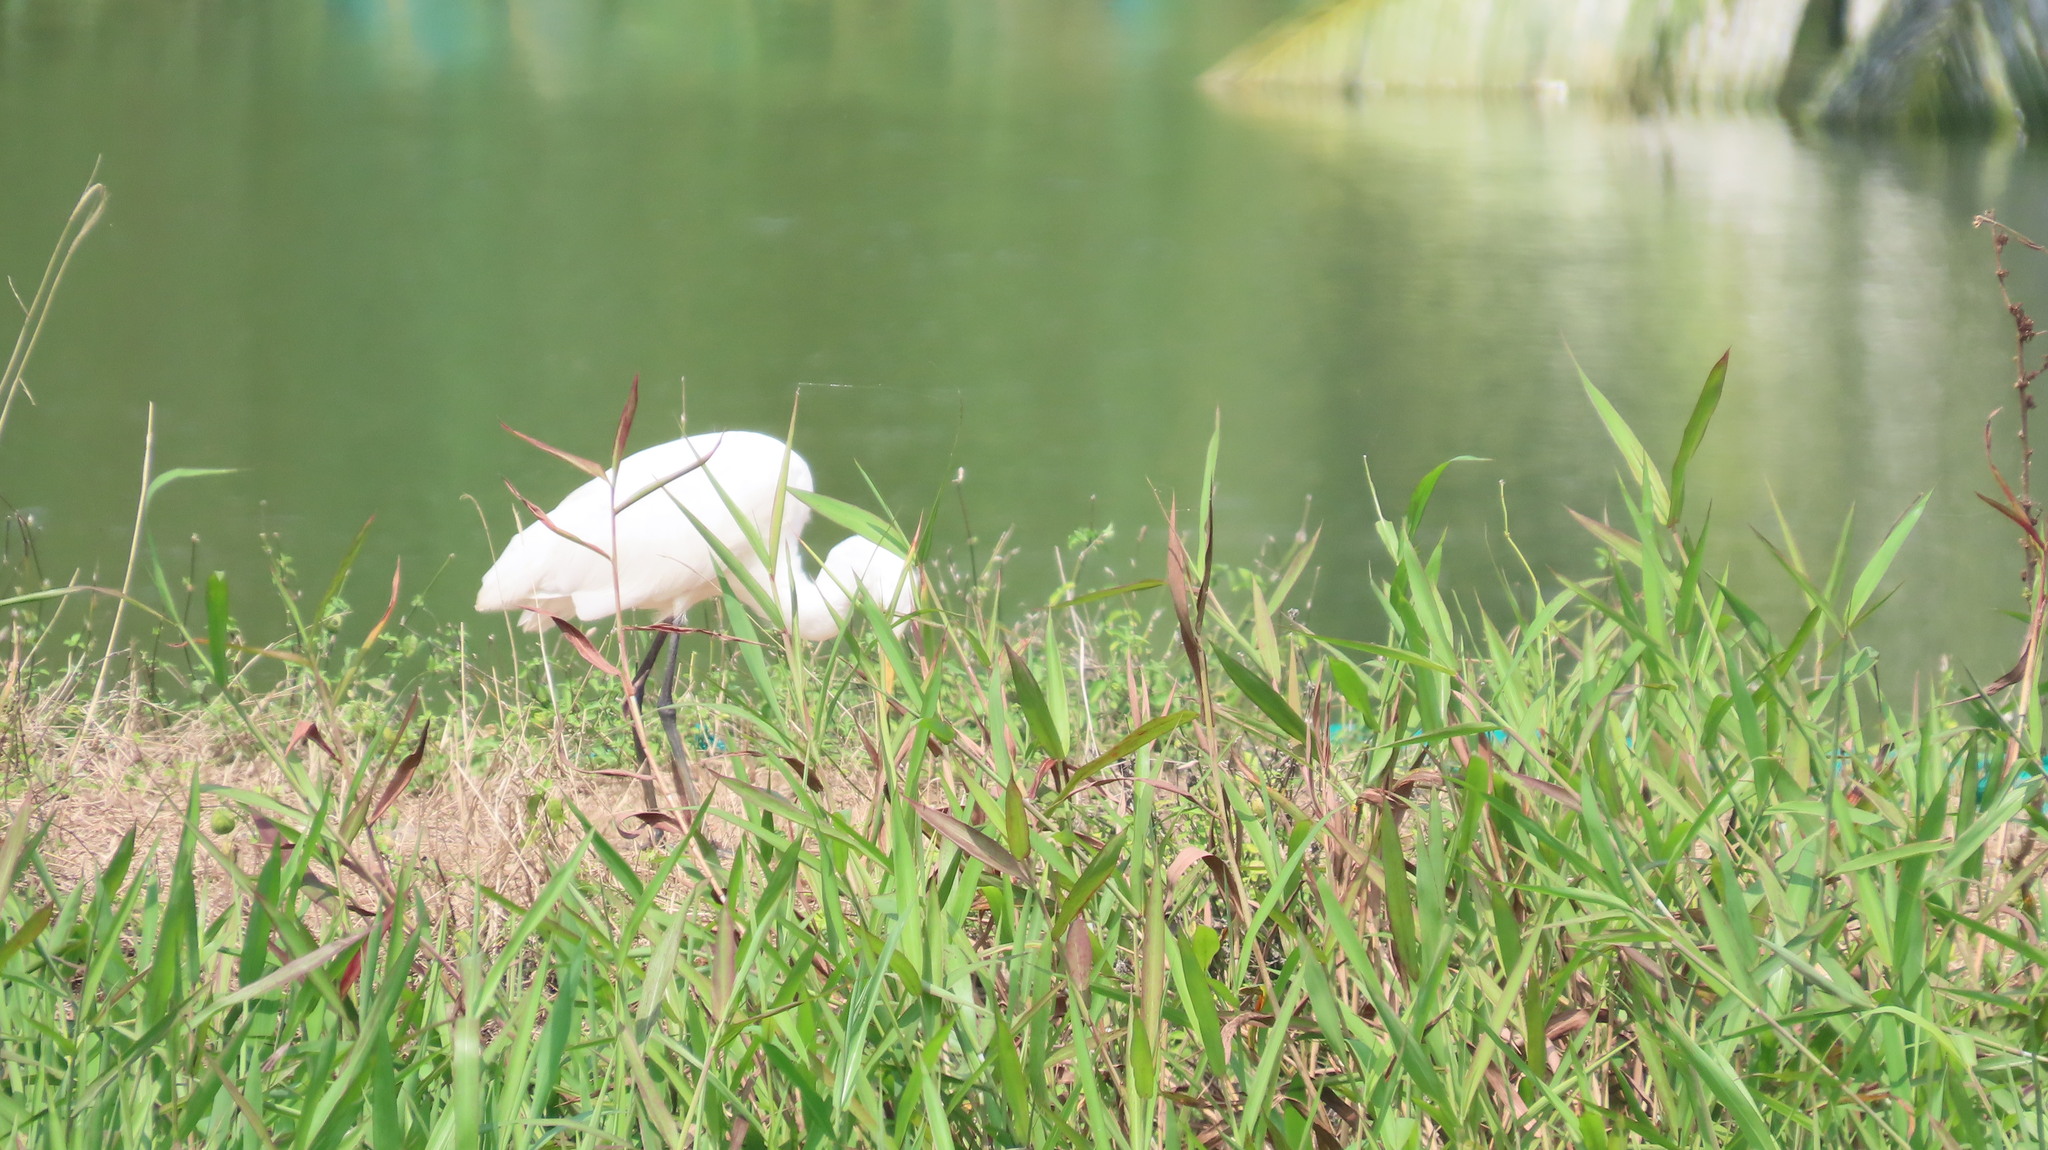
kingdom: Animalia
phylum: Chordata
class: Aves
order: Pelecaniformes
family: Ardeidae
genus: Bubulcus
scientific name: Bubulcus coromandus
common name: Eastern cattle egret
